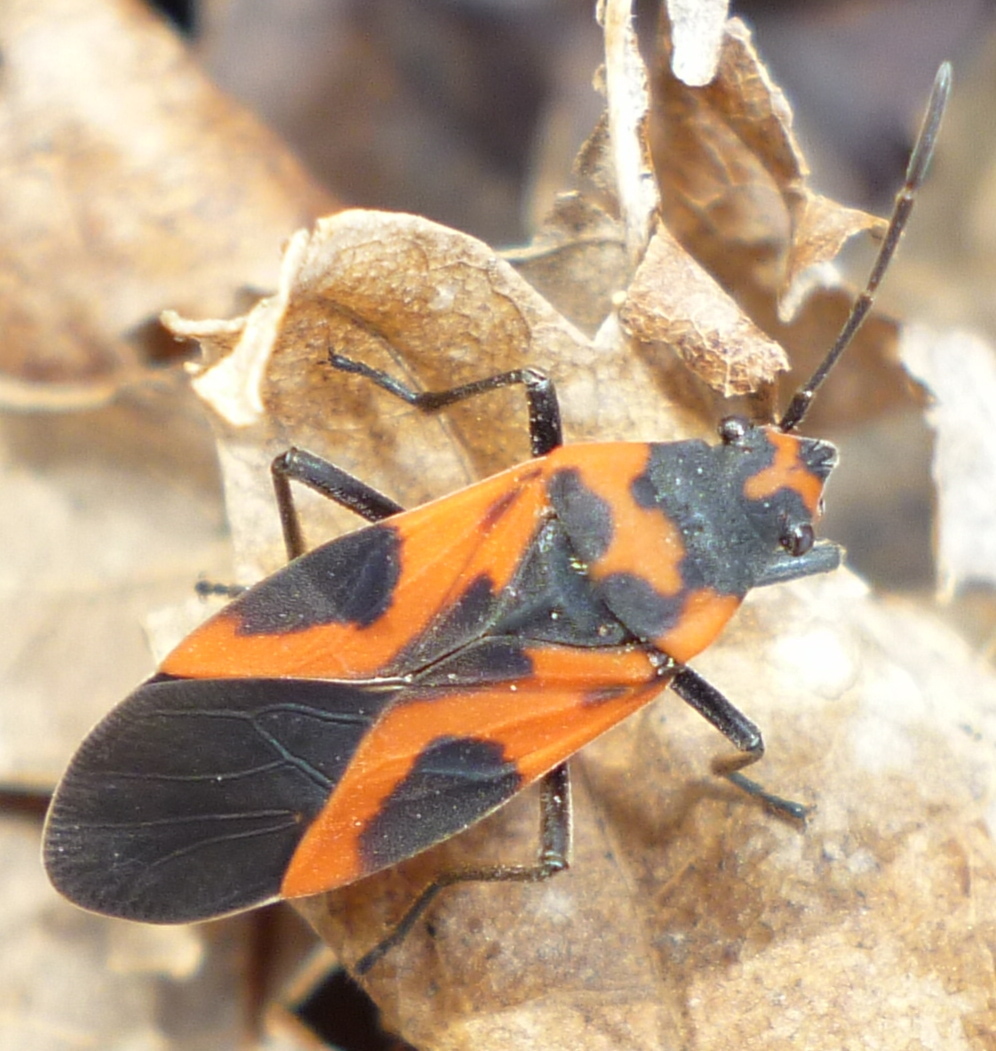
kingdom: Animalia
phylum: Arthropoda
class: Insecta
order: Hemiptera
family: Lygaeidae
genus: Lygaeus
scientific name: Lygaeus turcicus
